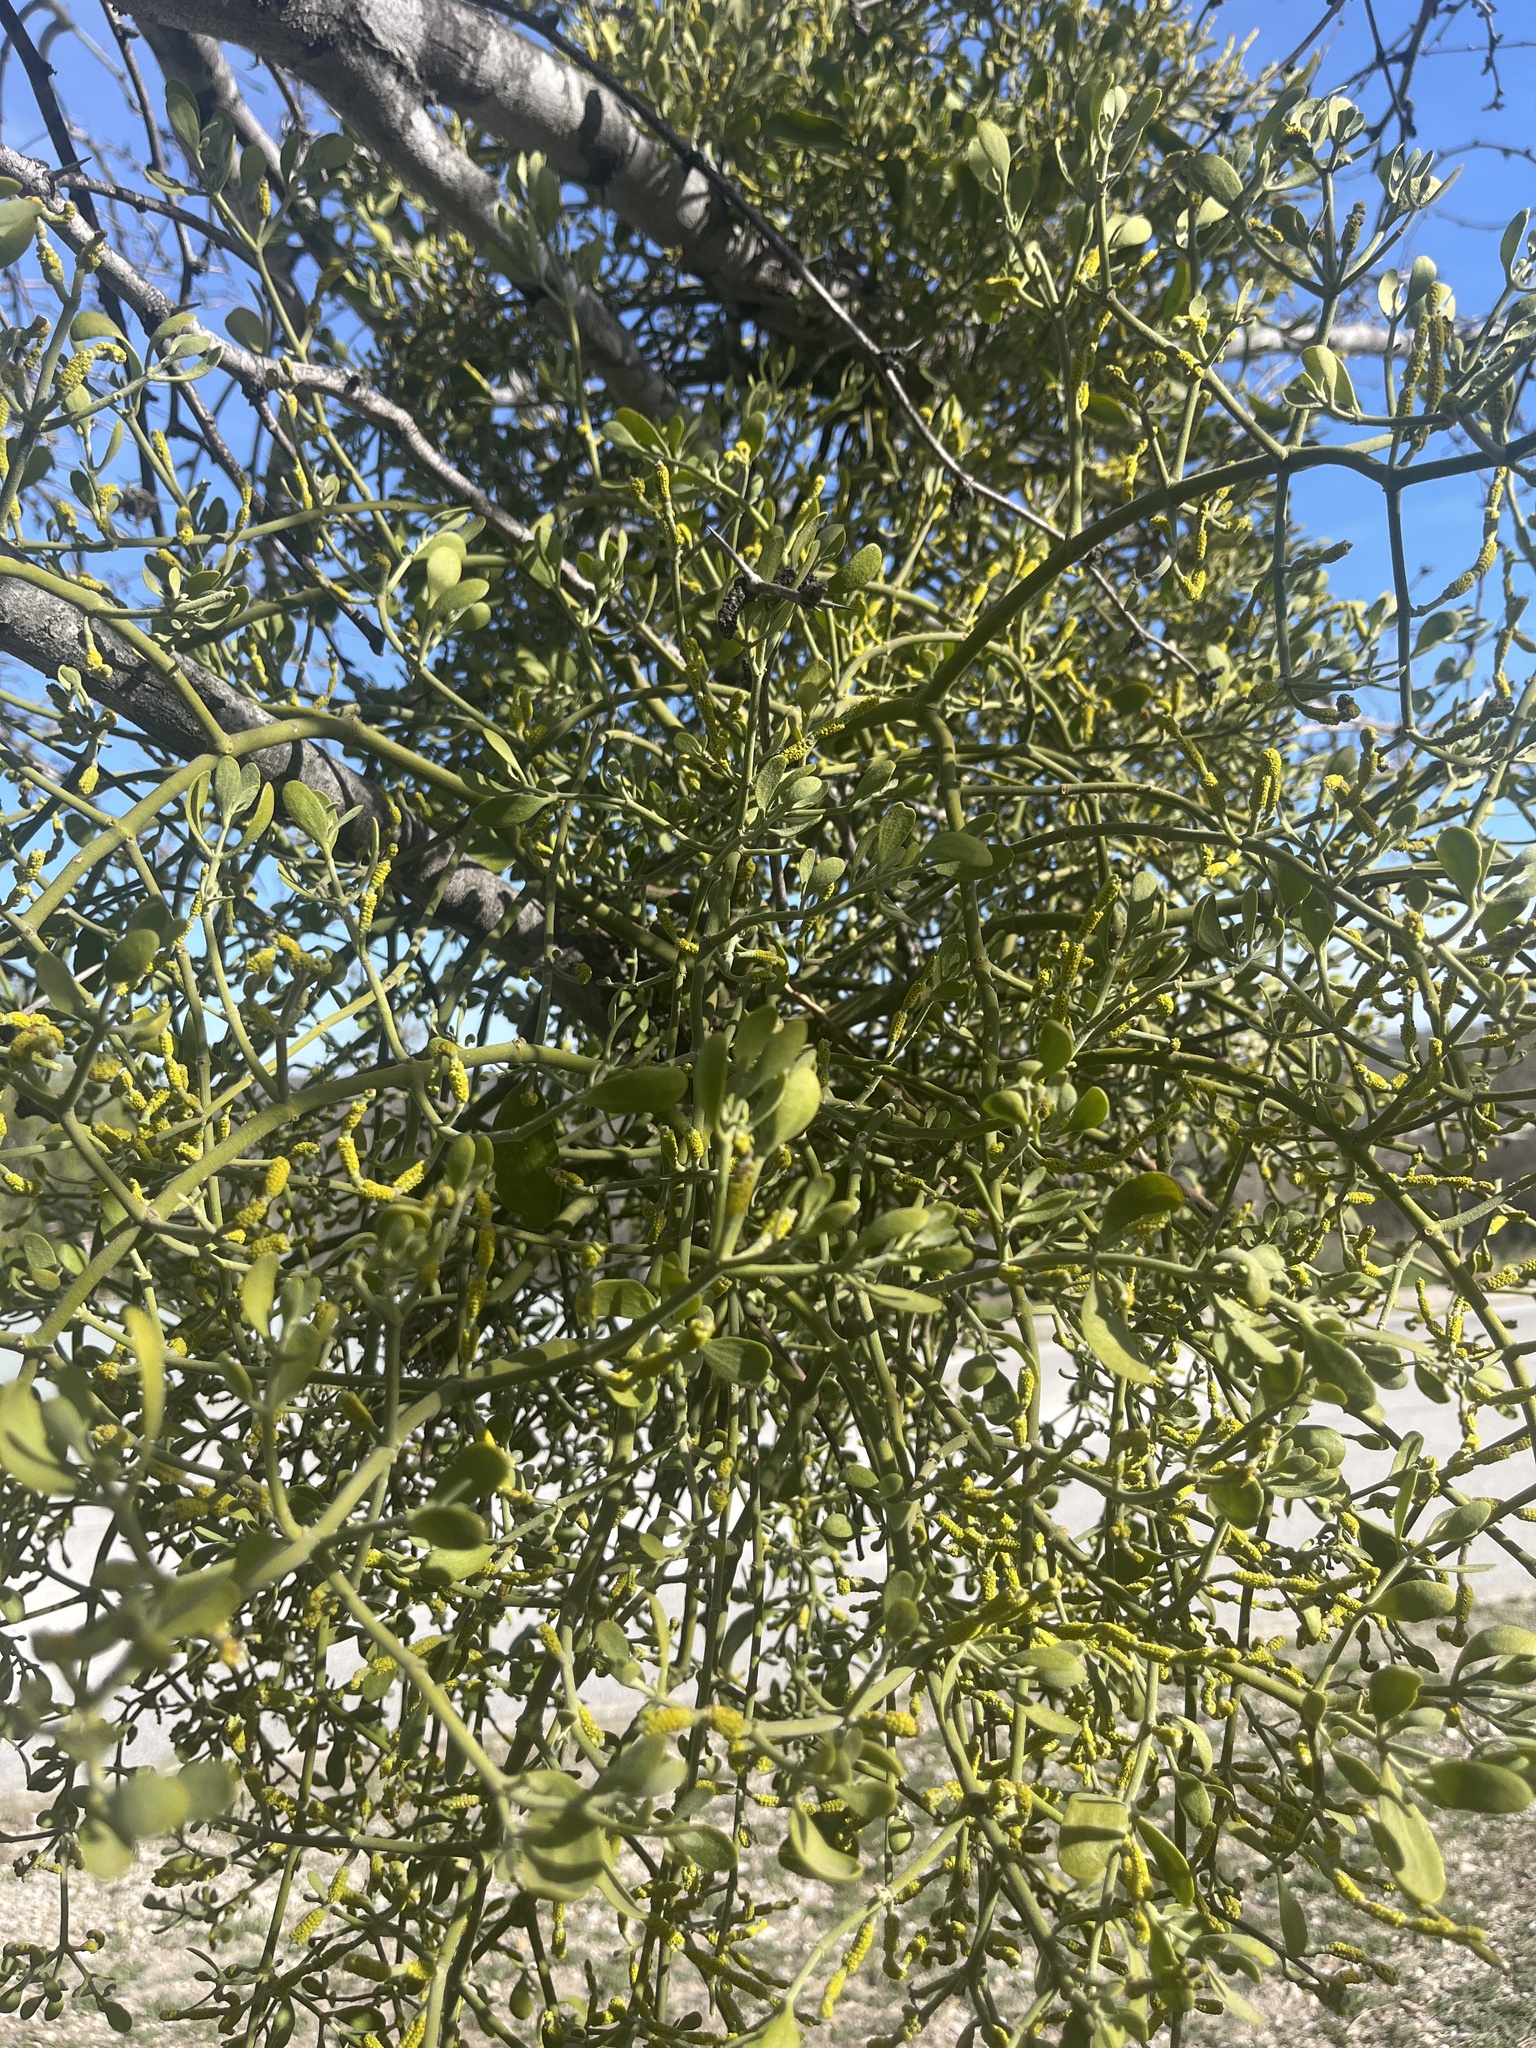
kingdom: Plantae
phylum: Tracheophyta
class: Magnoliopsida
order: Santalales
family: Viscaceae
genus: Phoradendron
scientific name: Phoradendron leucarpum
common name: Pacific mistletoe
